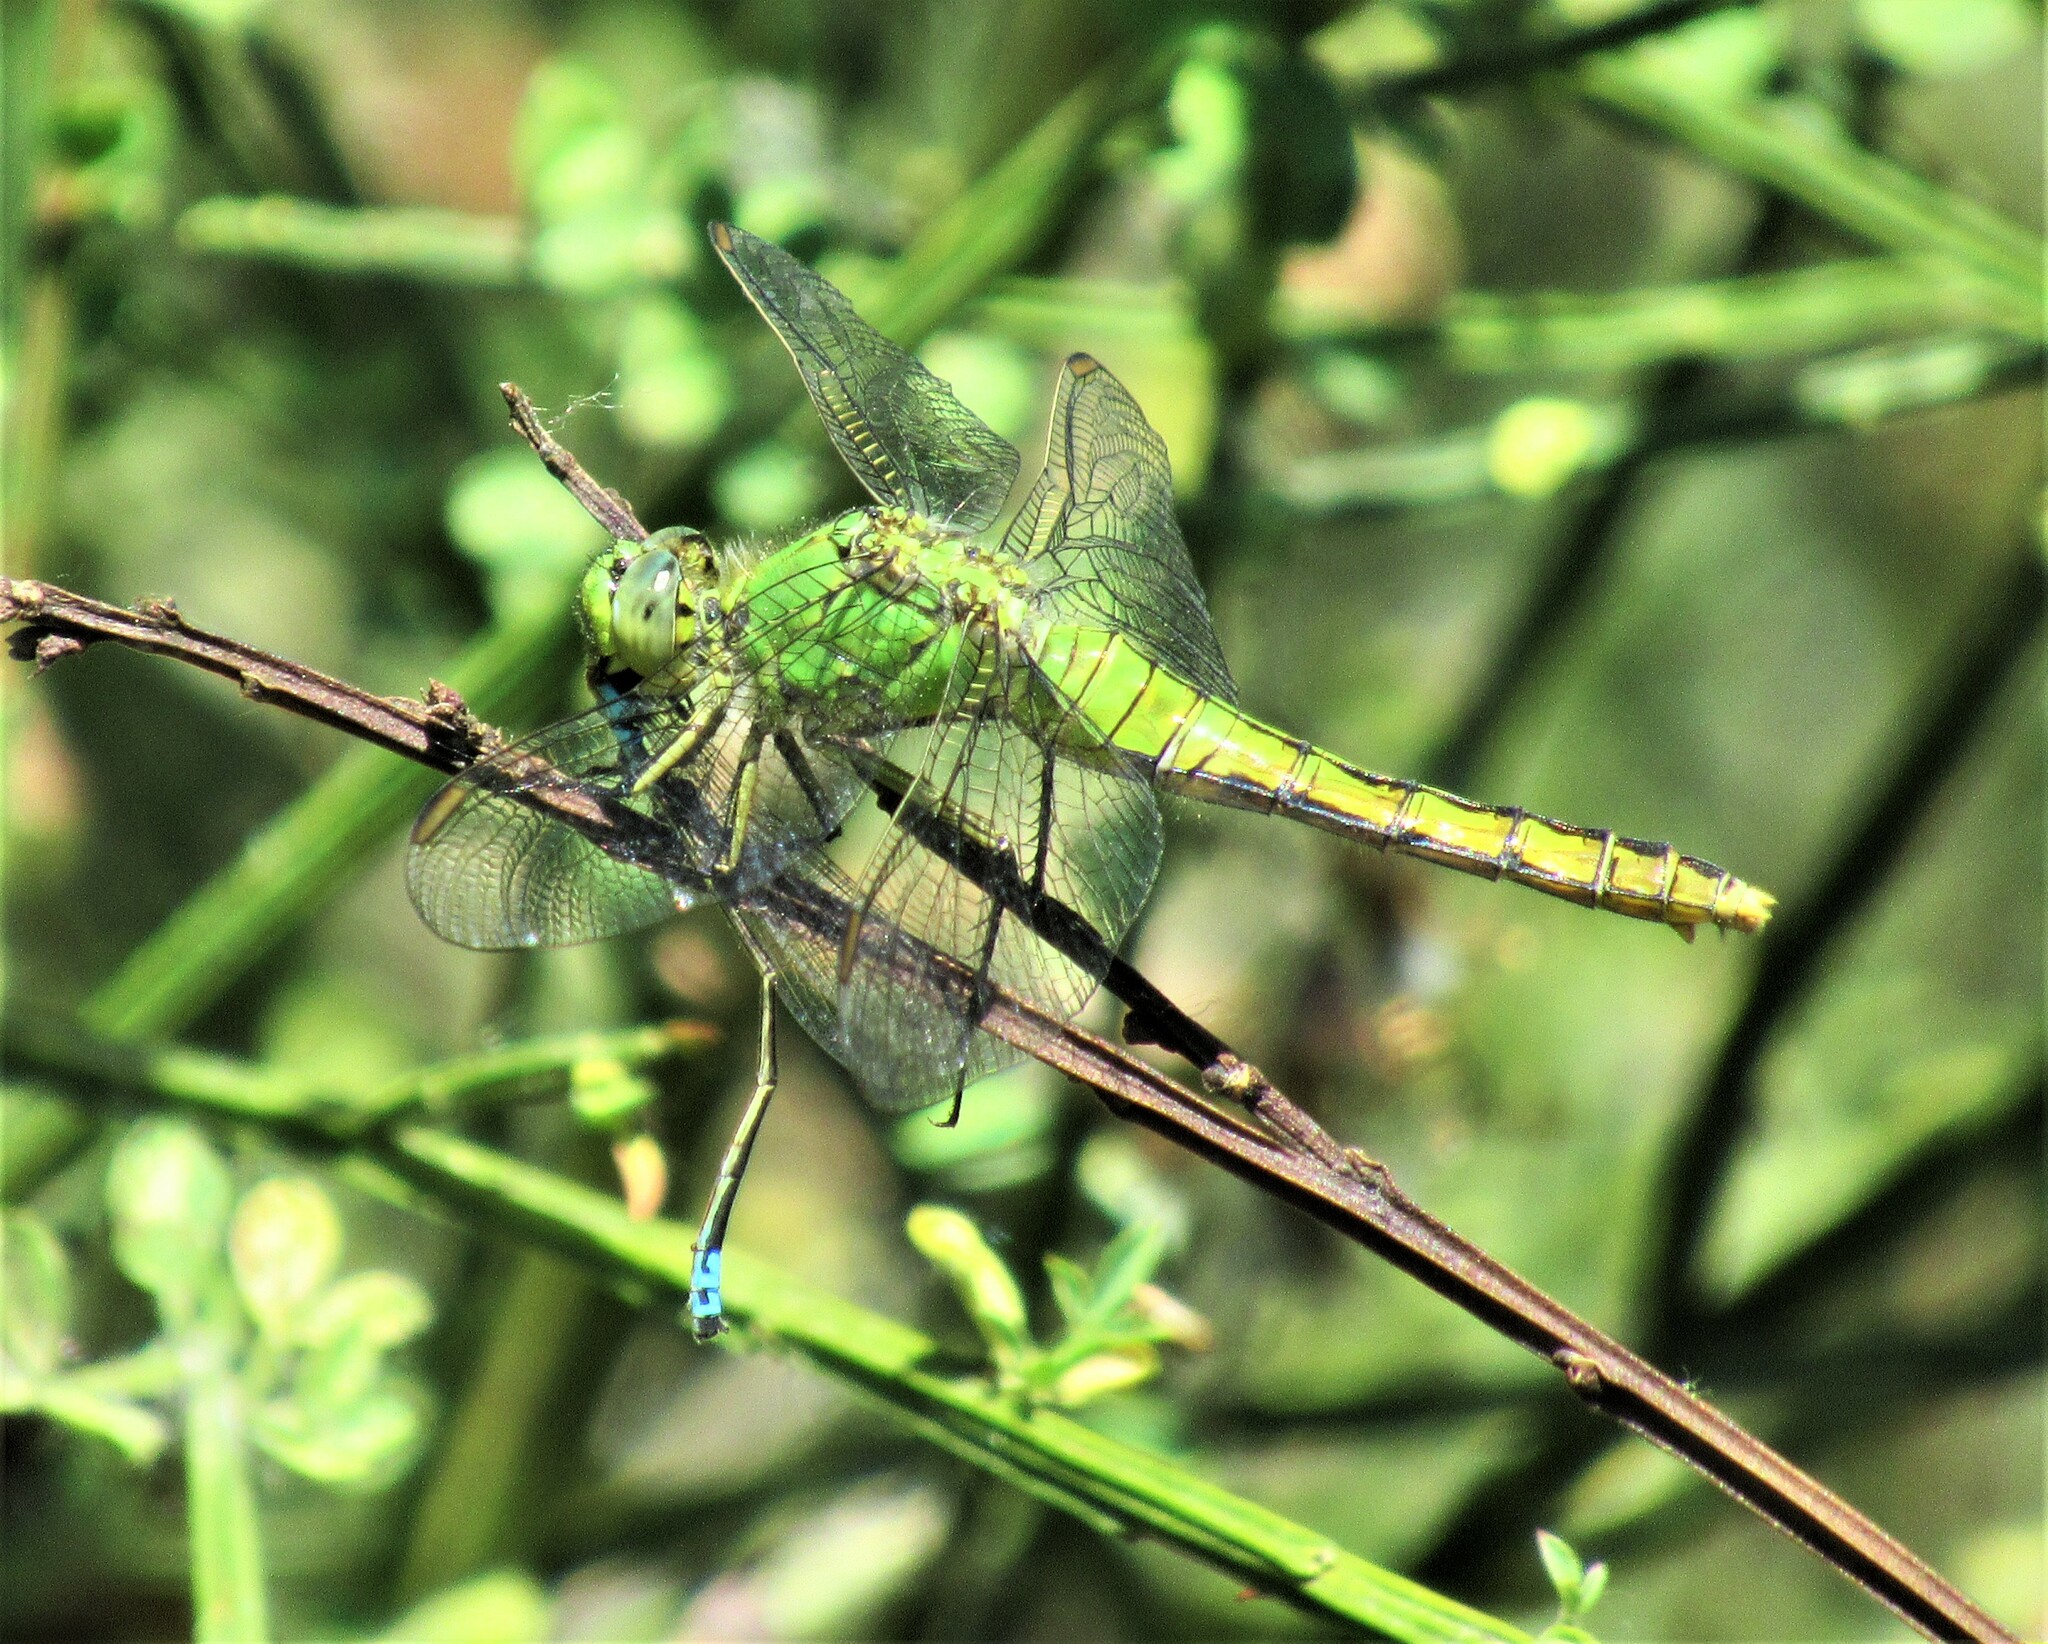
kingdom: Animalia
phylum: Arthropoda
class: Insecta
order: Odonata
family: Libellulidae
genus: Erythemis
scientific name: Erythemis collocata
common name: Western pondhawk
